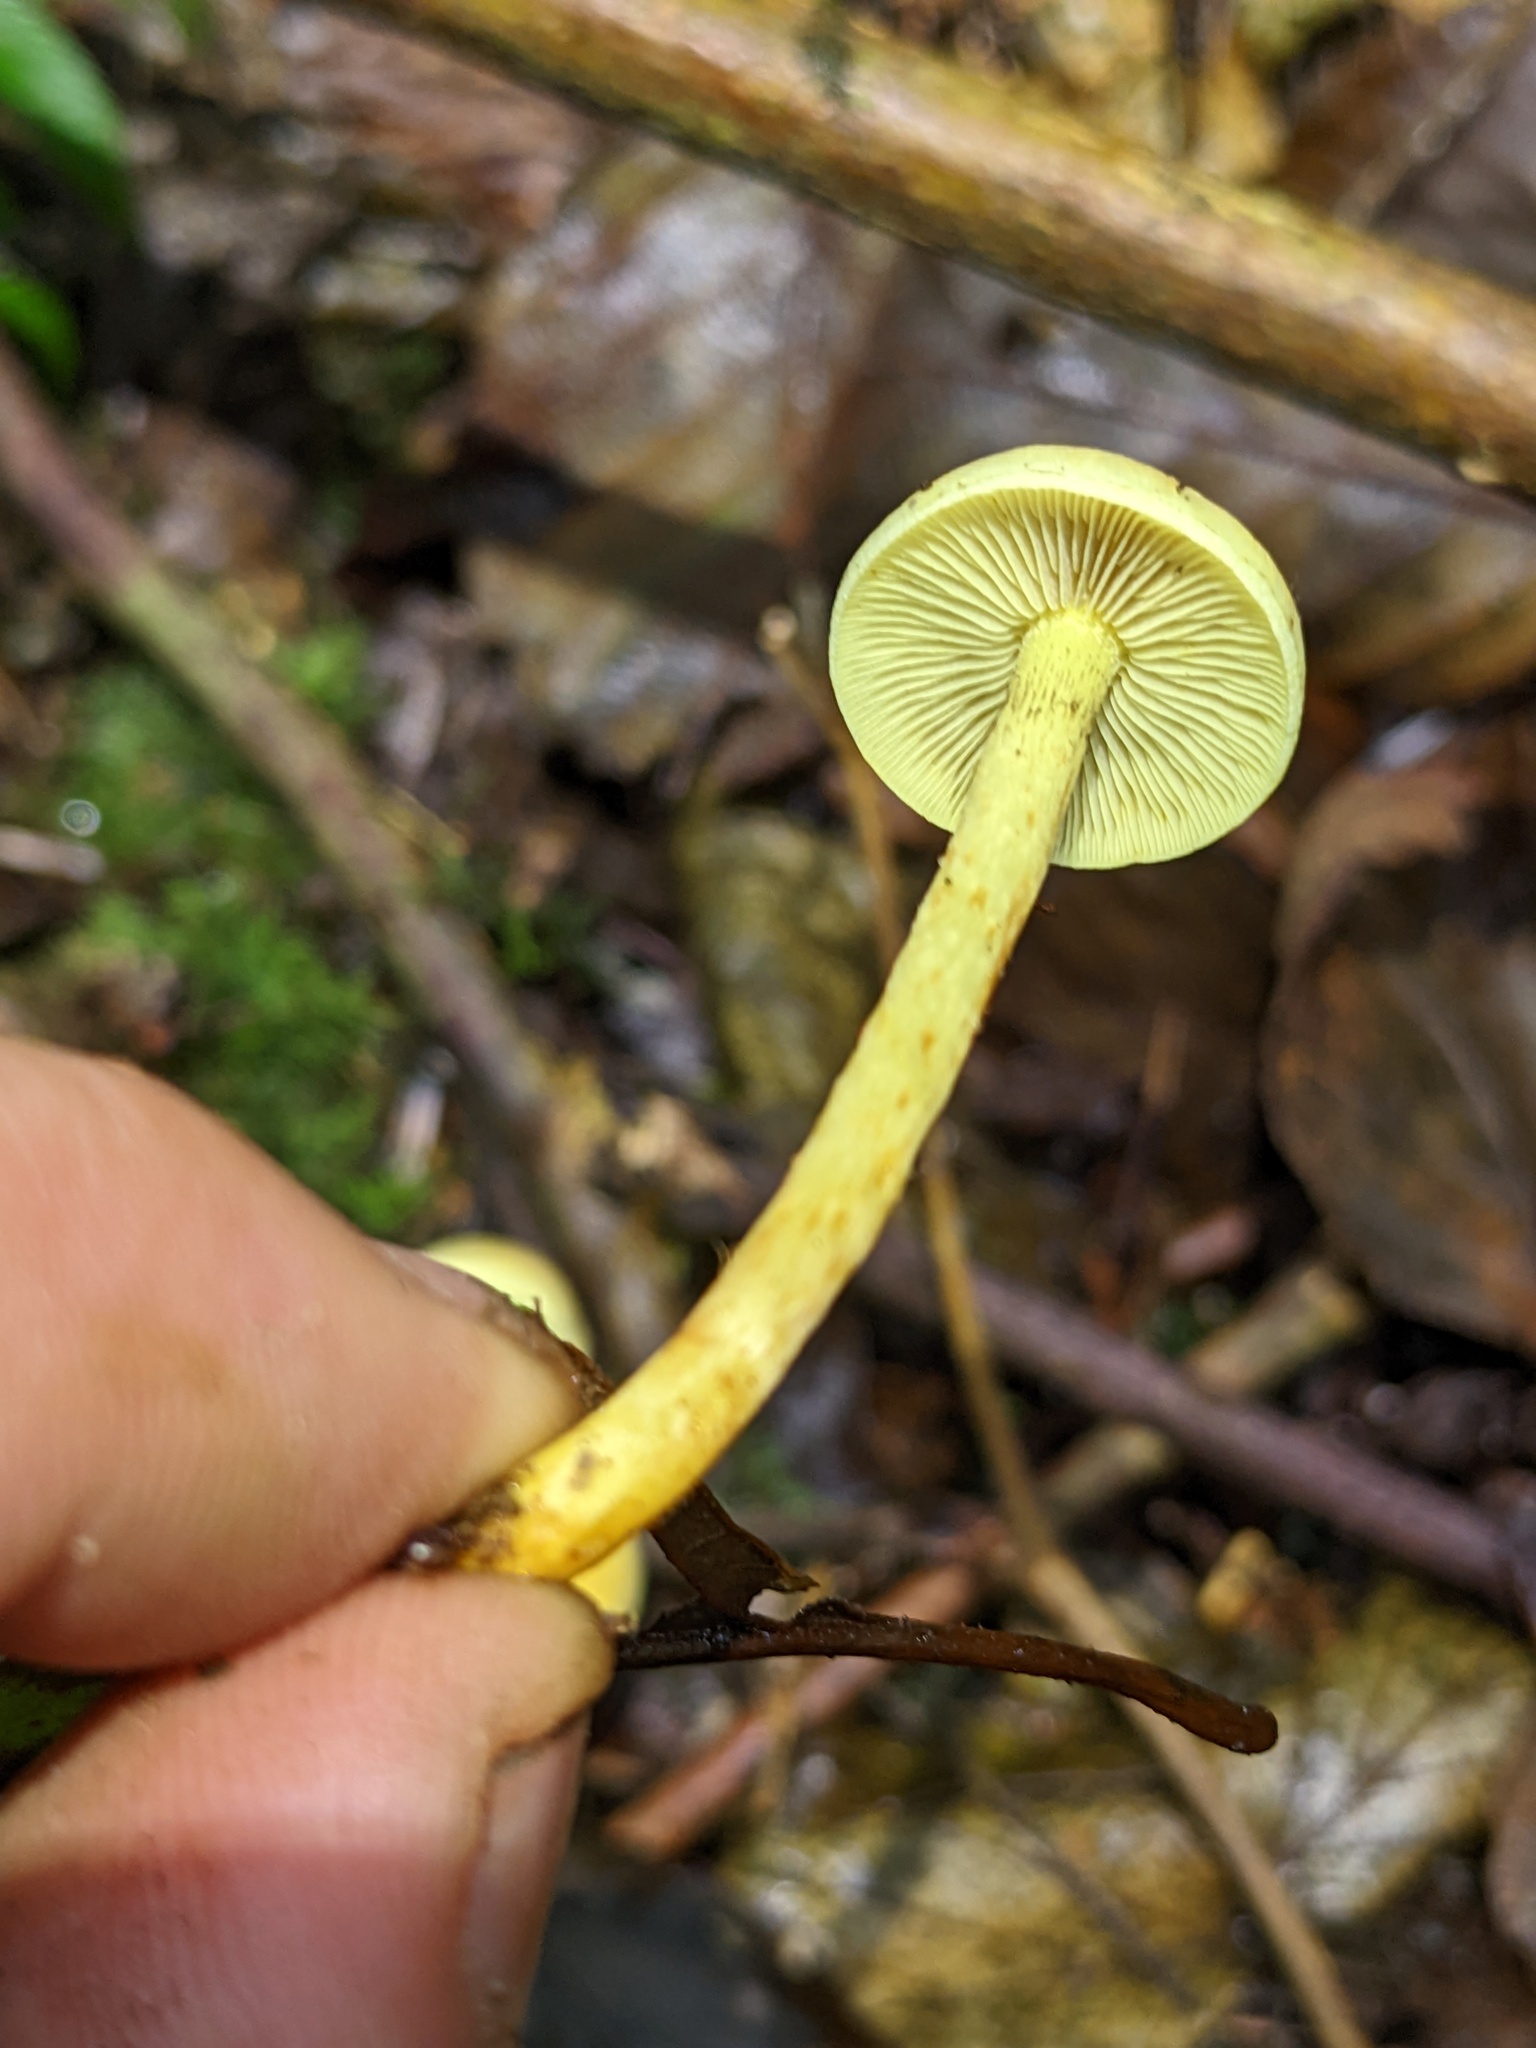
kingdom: Fungi
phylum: Basidiomycota
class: Agaricomycetes
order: Agaricales
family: Strophariaceae
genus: Hypholoma
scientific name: Hypholoma fasciculare
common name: Sulphur tuft
